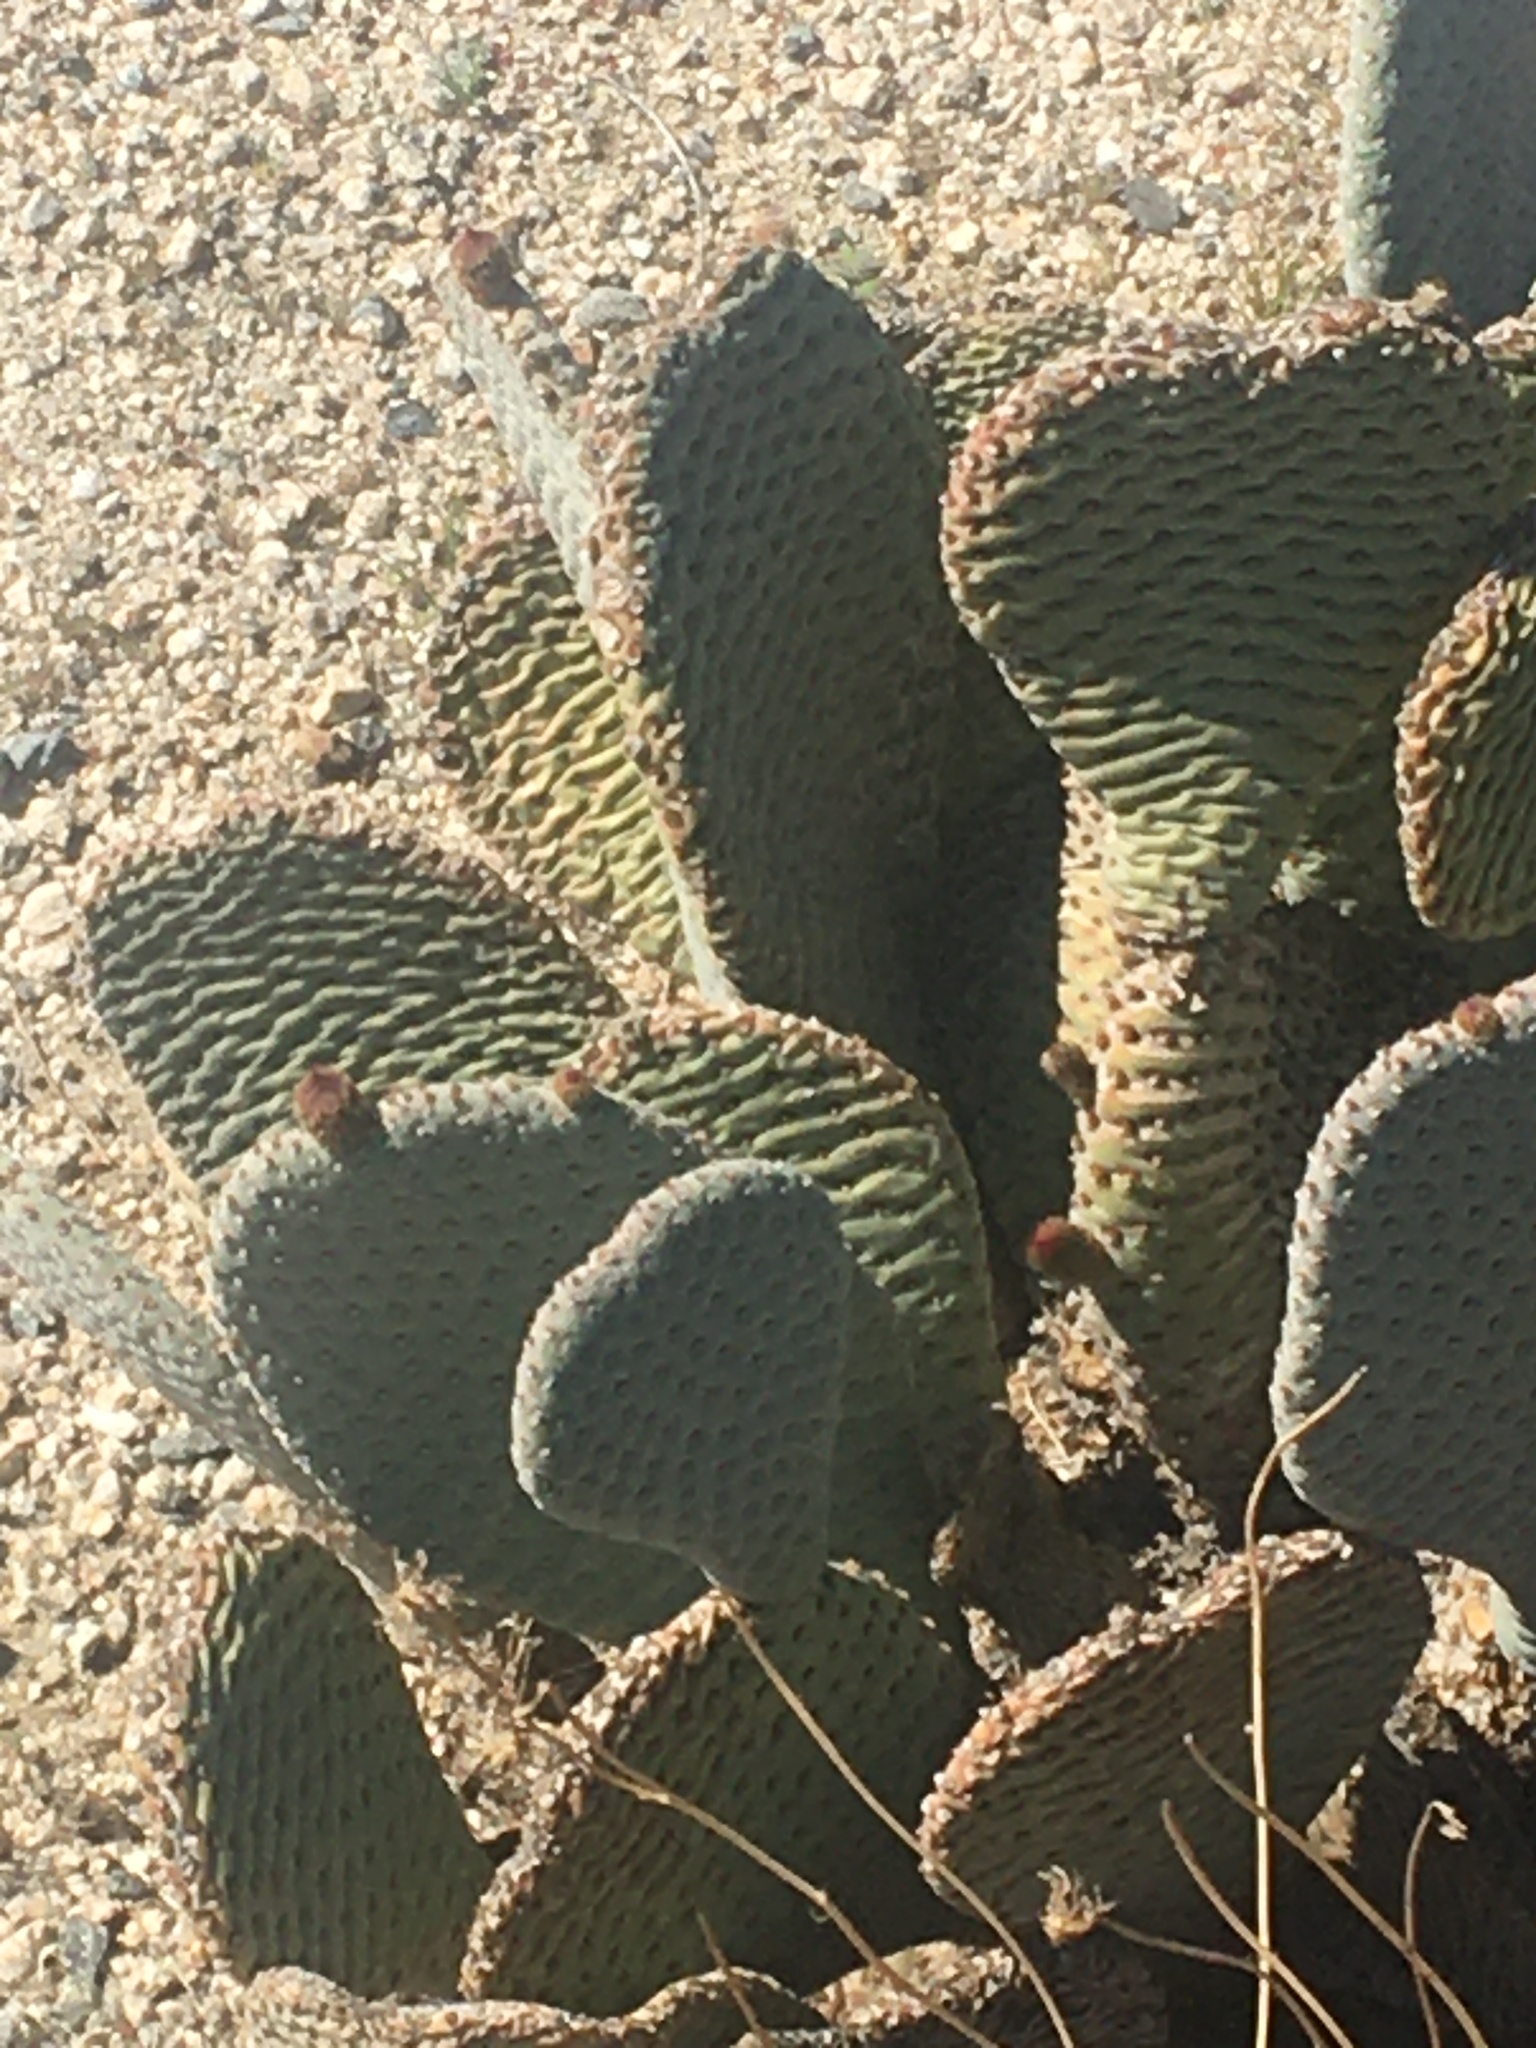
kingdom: Plantae
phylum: Tracheophyta
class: Magnoliopsida
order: Caryophyllales
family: Cactaceae
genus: Opuntia
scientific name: Opuntia basilaris
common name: Beavertail prickly-pear
